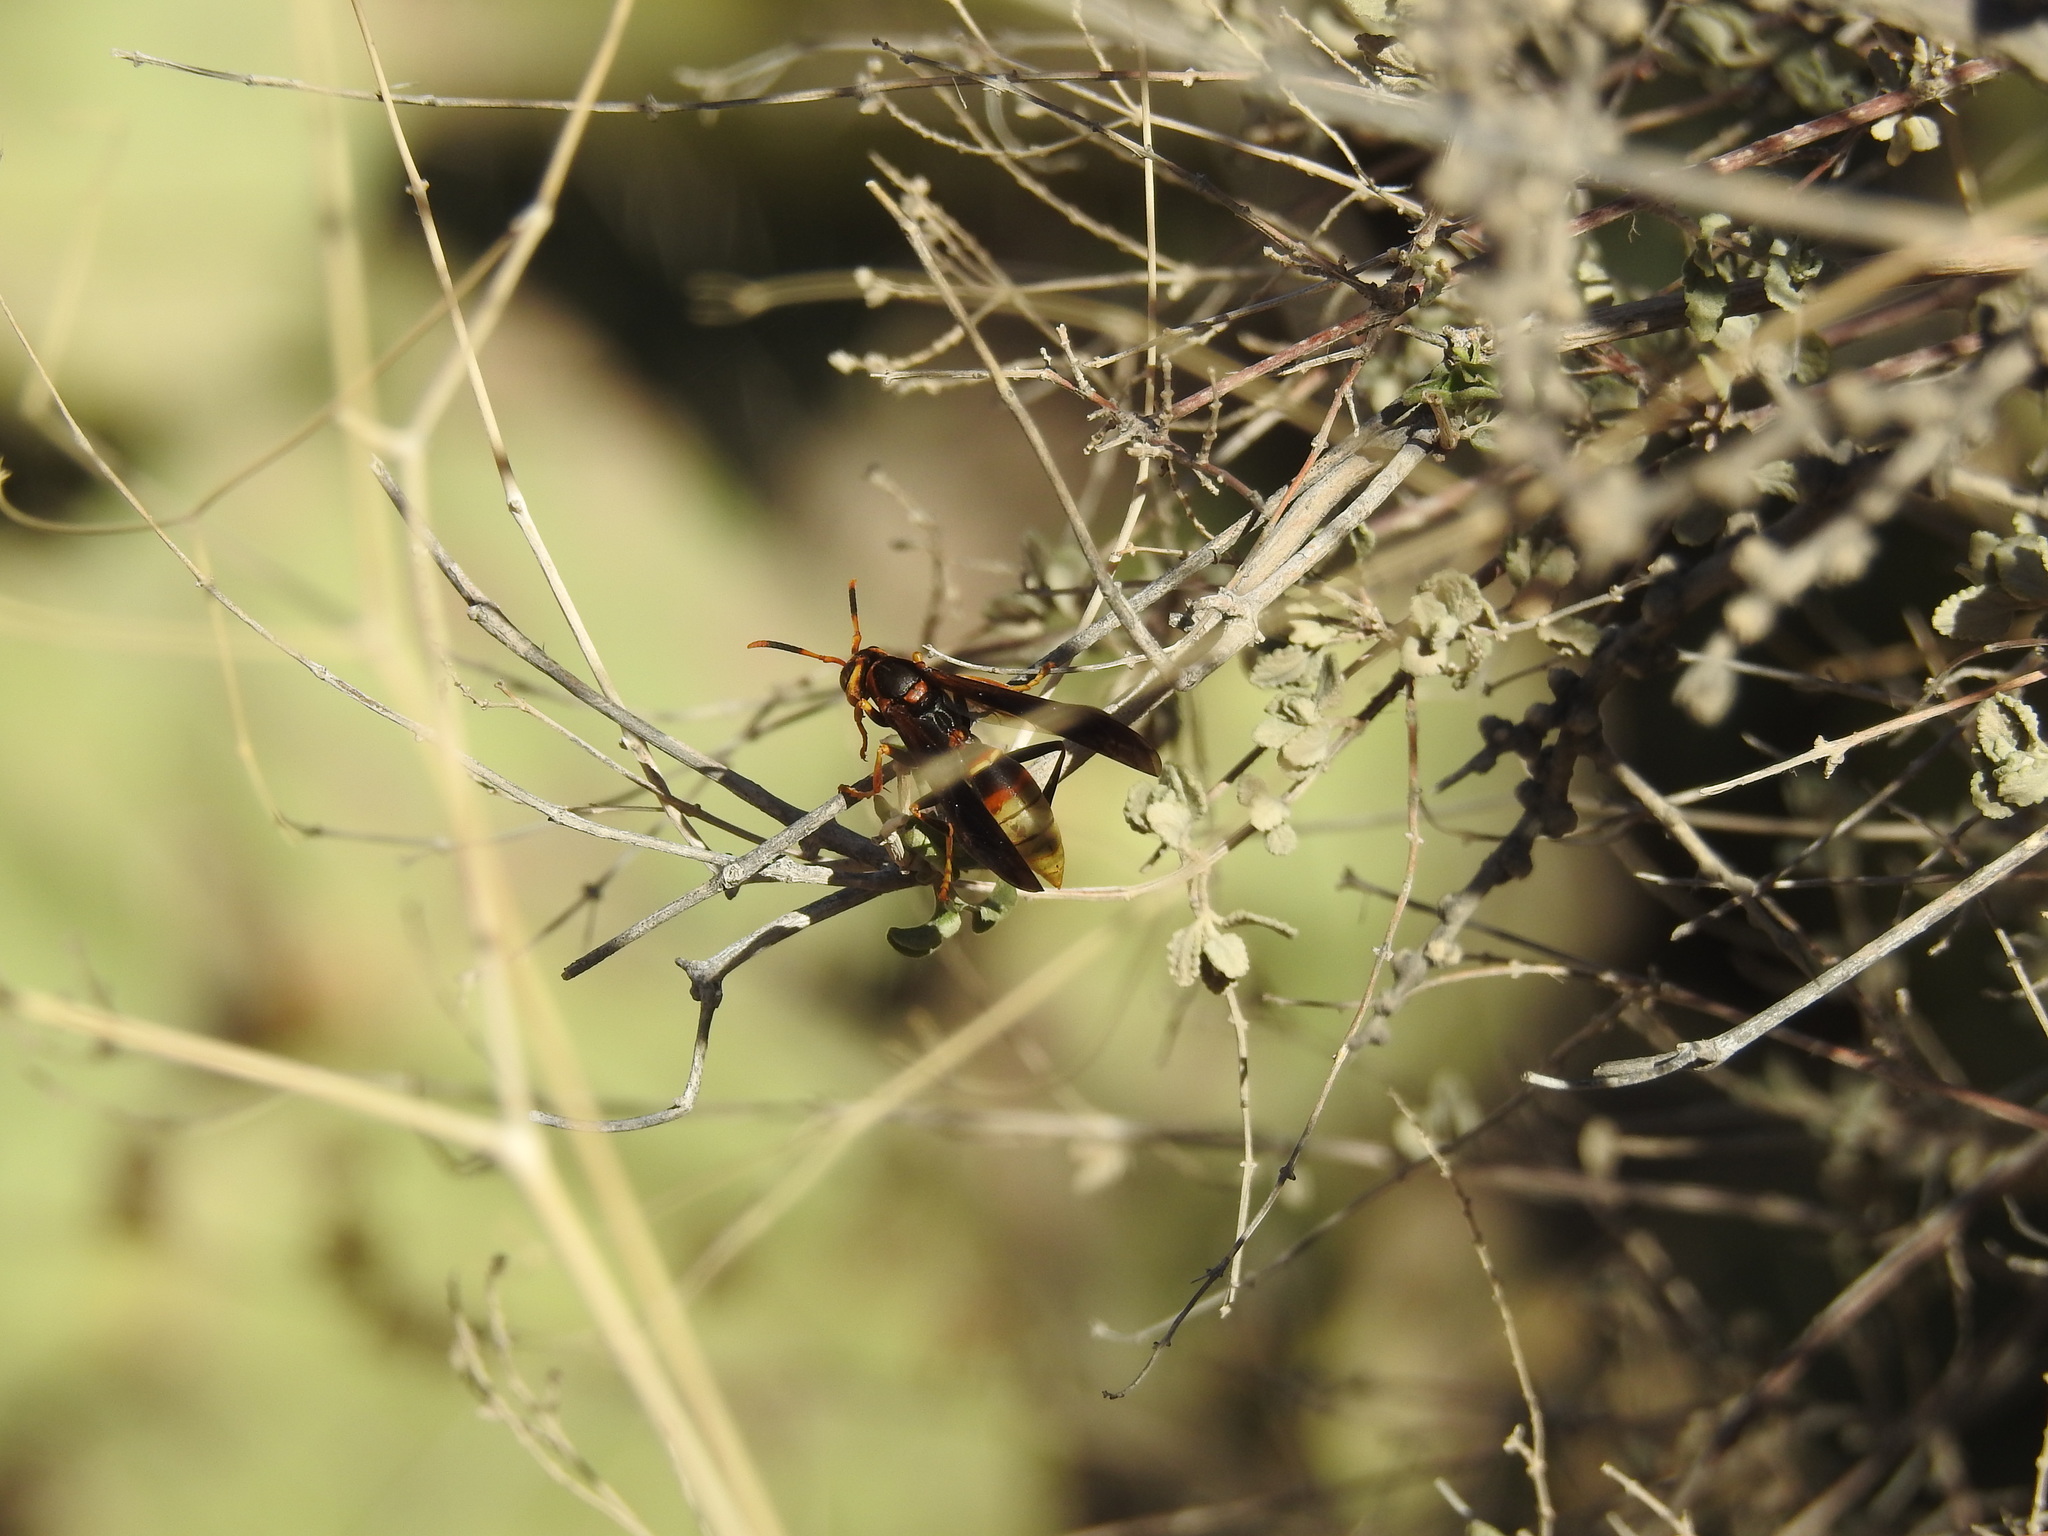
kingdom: Animalia
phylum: Arthropoda
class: Insecta
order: Hymenoptera
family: Eumenidae
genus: Polistes
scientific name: Polistes comanchus
